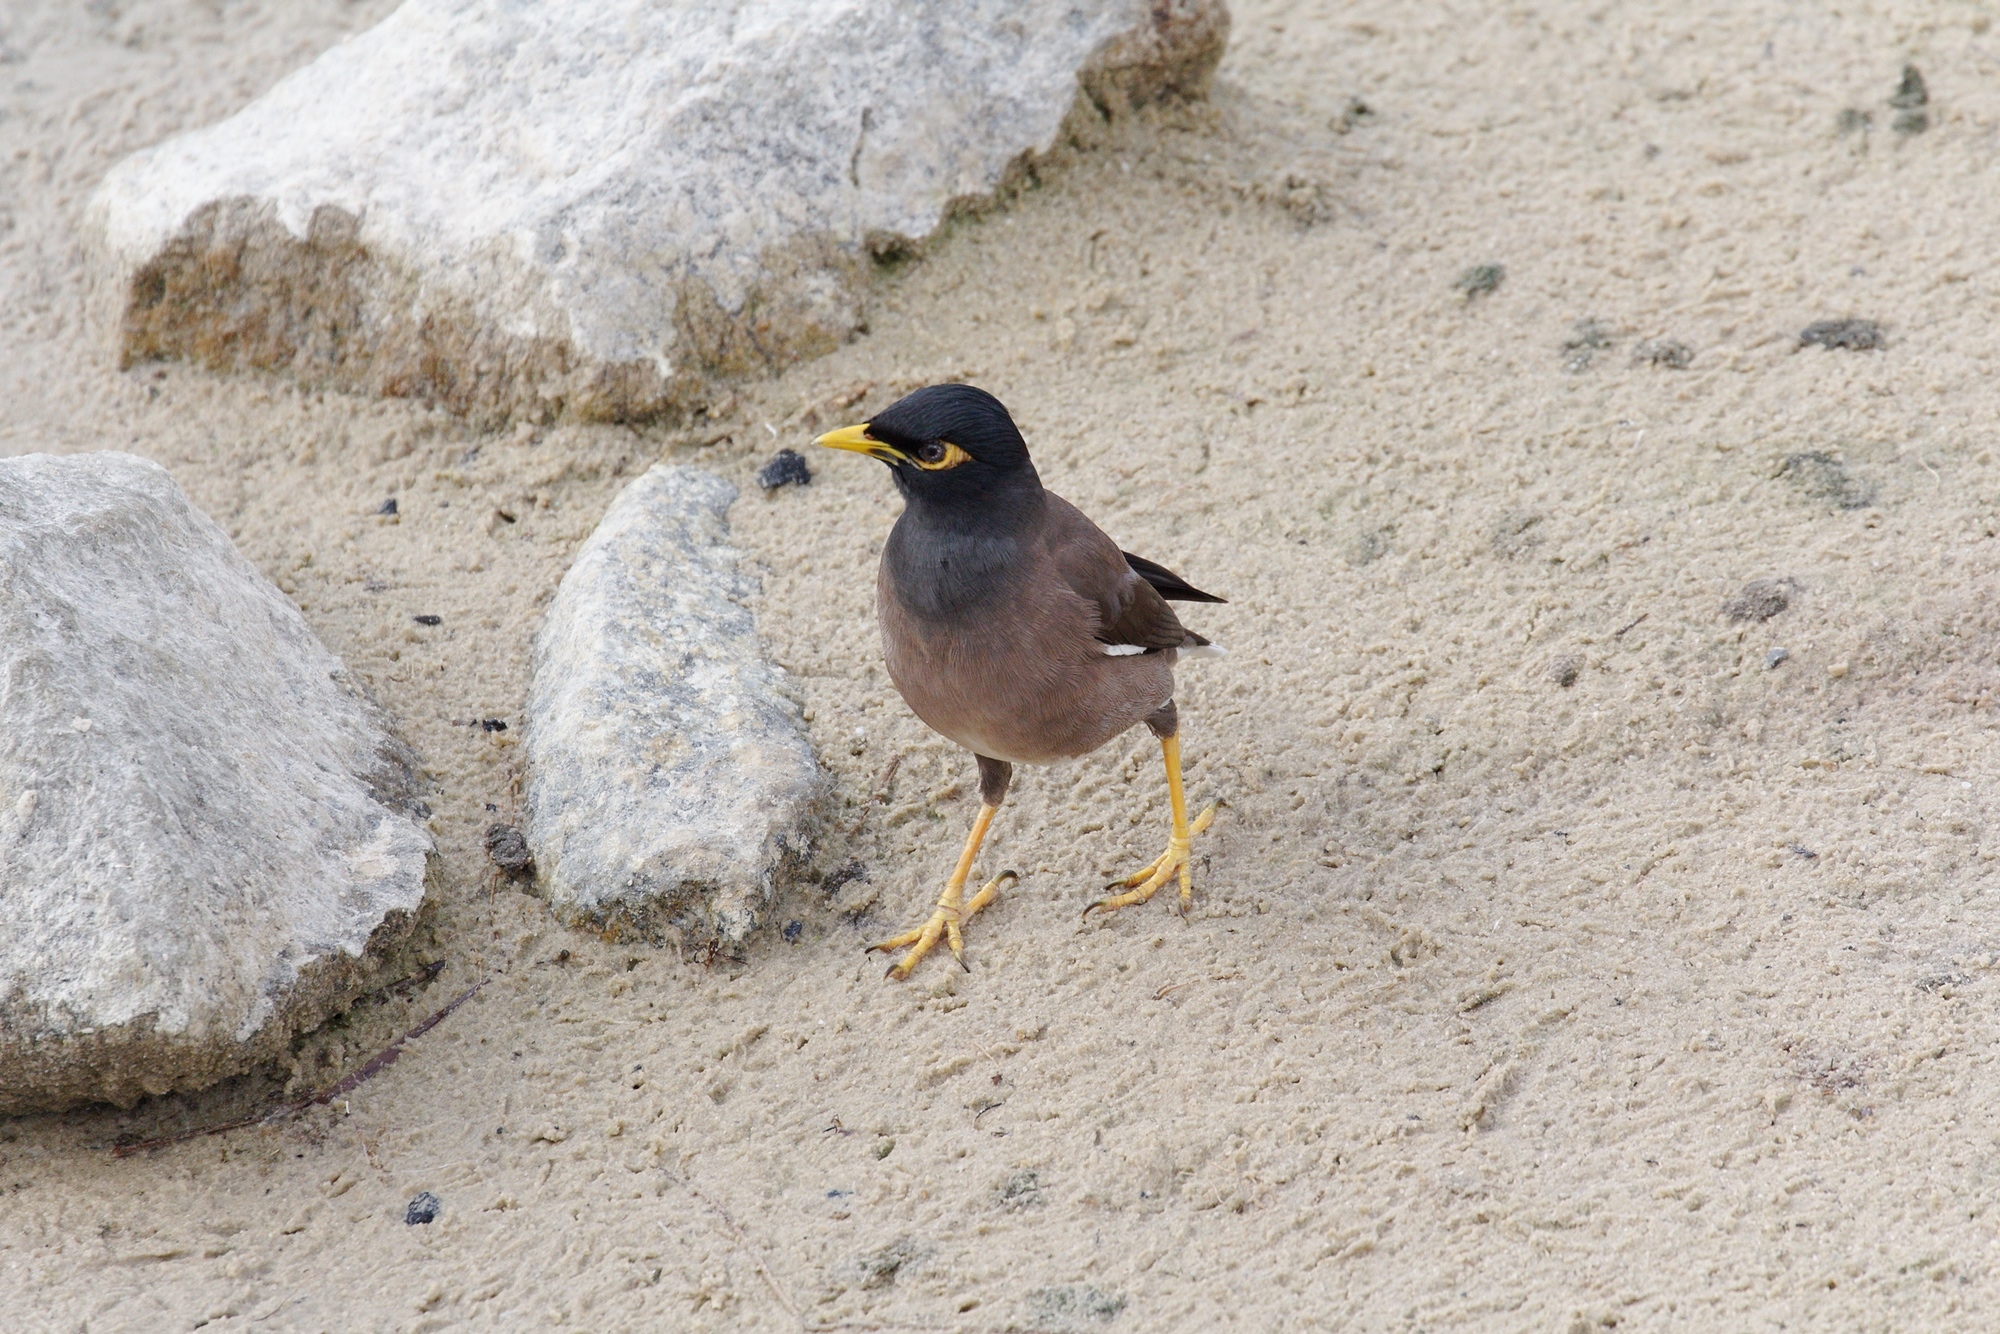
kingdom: Animalia
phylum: Chordata
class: Aves
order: Passeriformes
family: Sturnidae
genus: Acridotheres
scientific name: Acridotheres tristis
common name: Common myna
